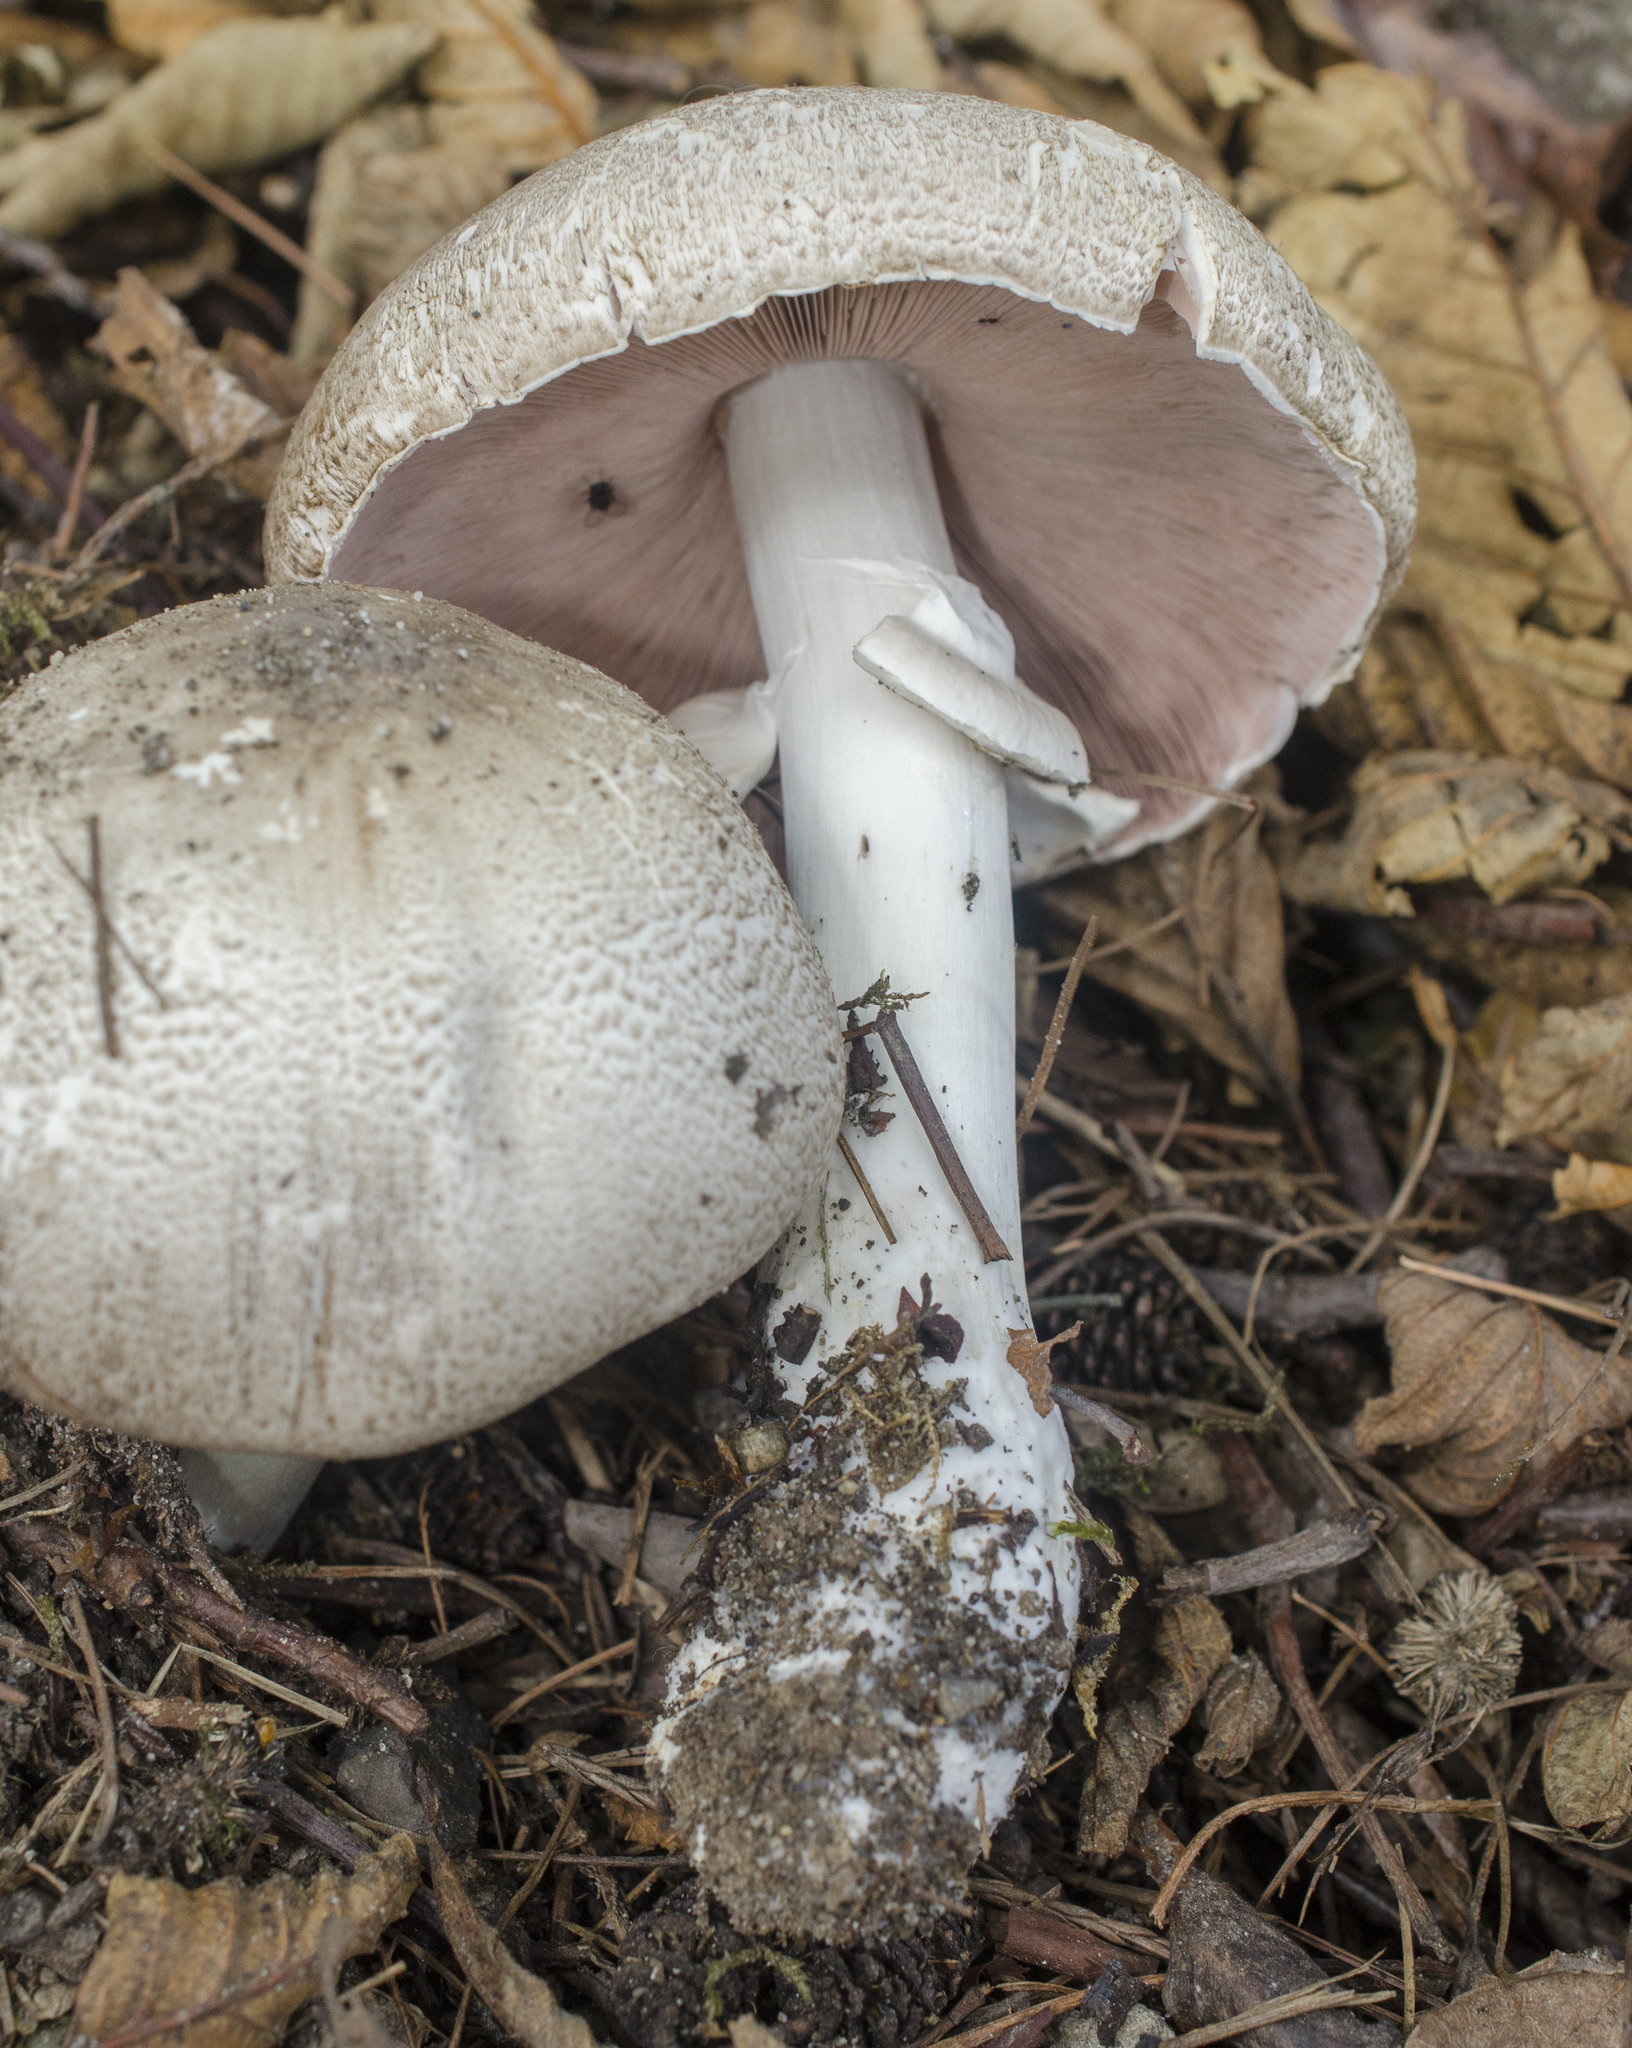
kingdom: Fungi
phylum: Basidiomycota
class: Agaricomycetes
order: Agaricales
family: Agaricaceae
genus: Agaricus
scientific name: Agaricus deardorffensis
